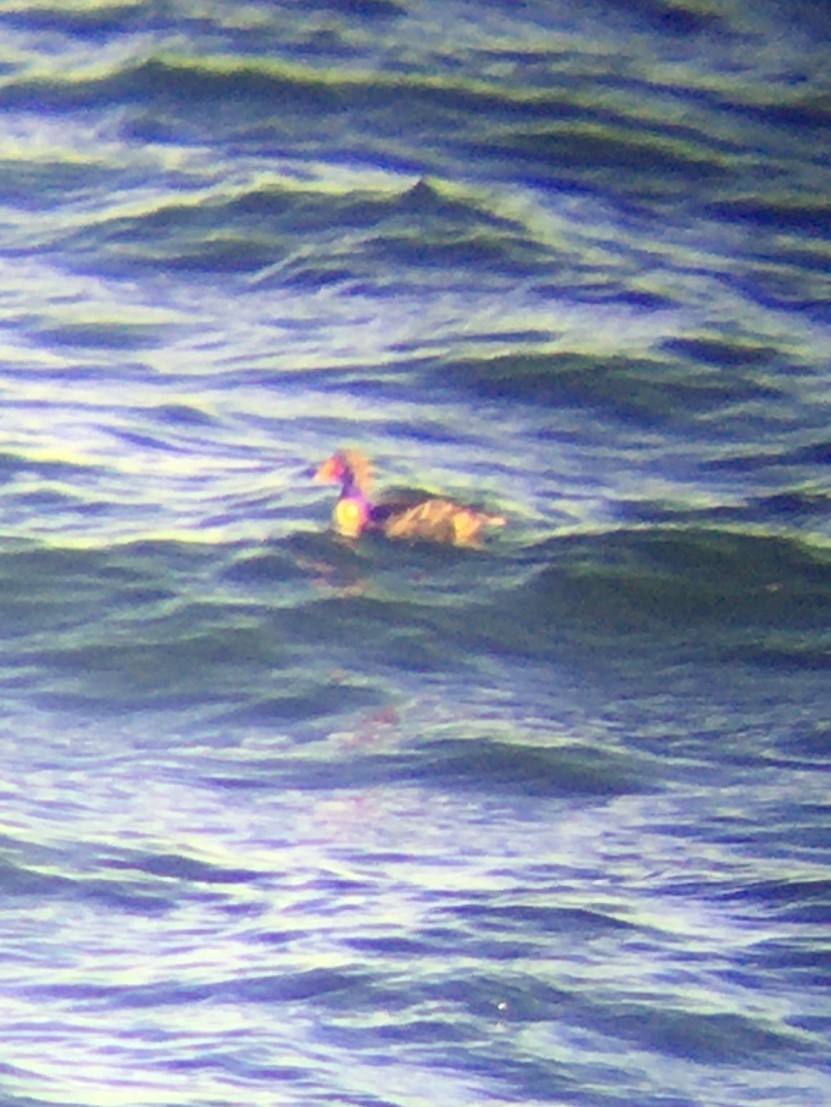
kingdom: Animalia
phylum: Chordata
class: Aves
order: Anseriformes
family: Anatidae
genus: Somateria
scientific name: Somateria spectabilis
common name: King eider
